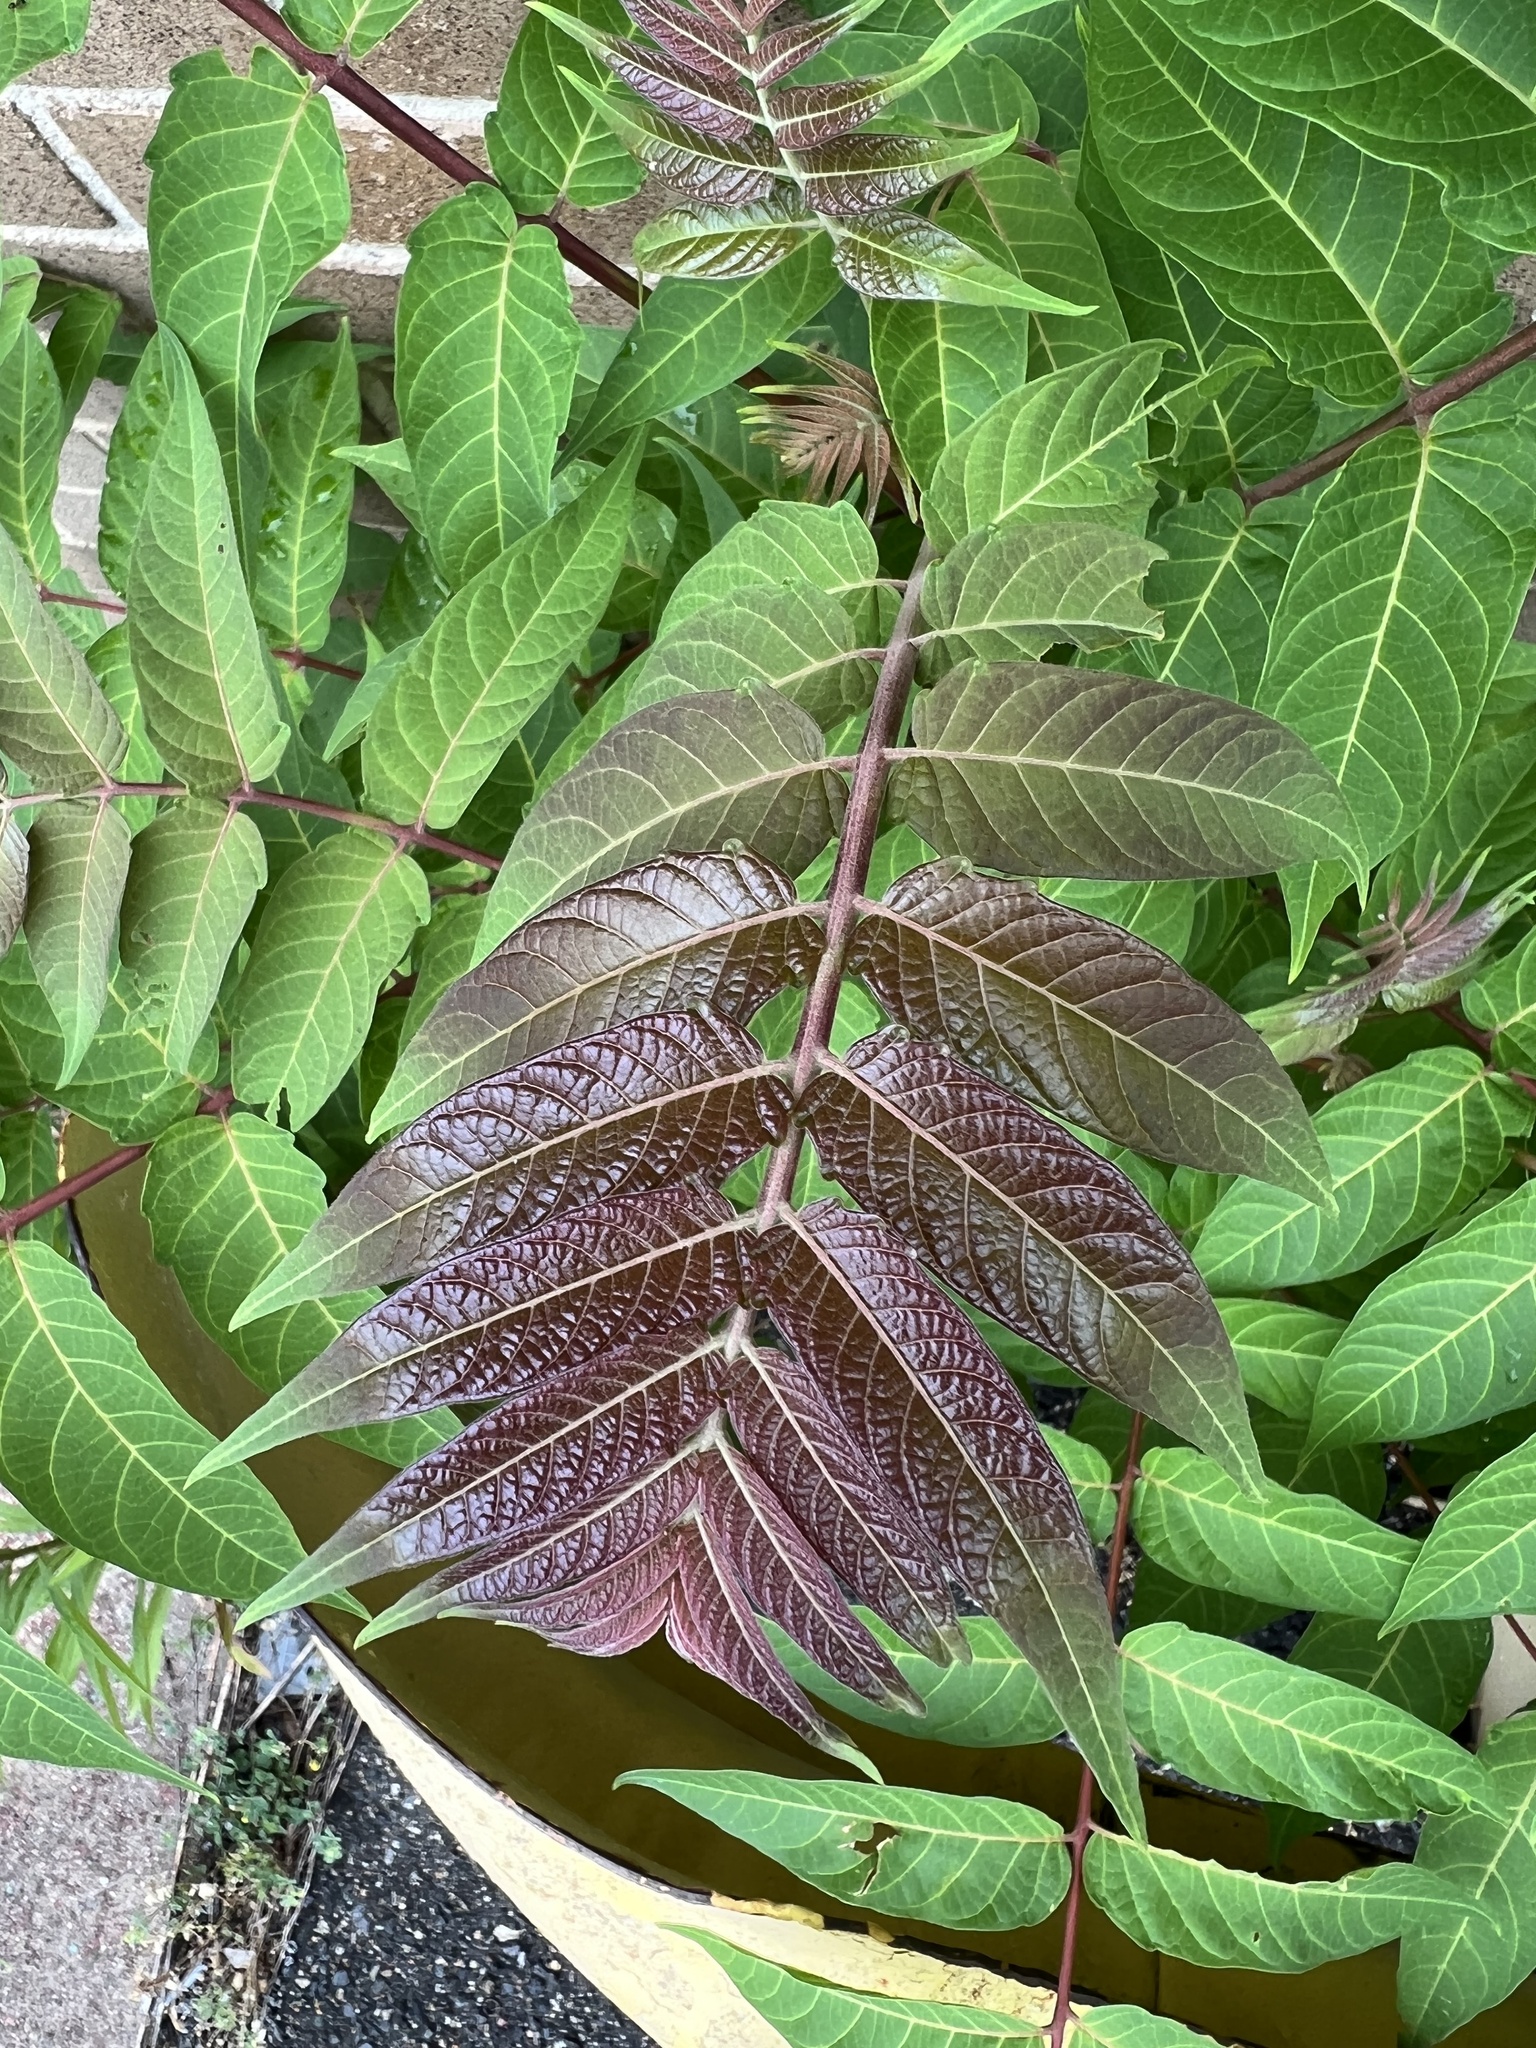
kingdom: Plantae
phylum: Tracheophyta
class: Magnoliopsida
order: Sapindales
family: Simaroubaceae
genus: Ailanthus
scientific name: Ailanthus altissima
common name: Tree-of-heaven
